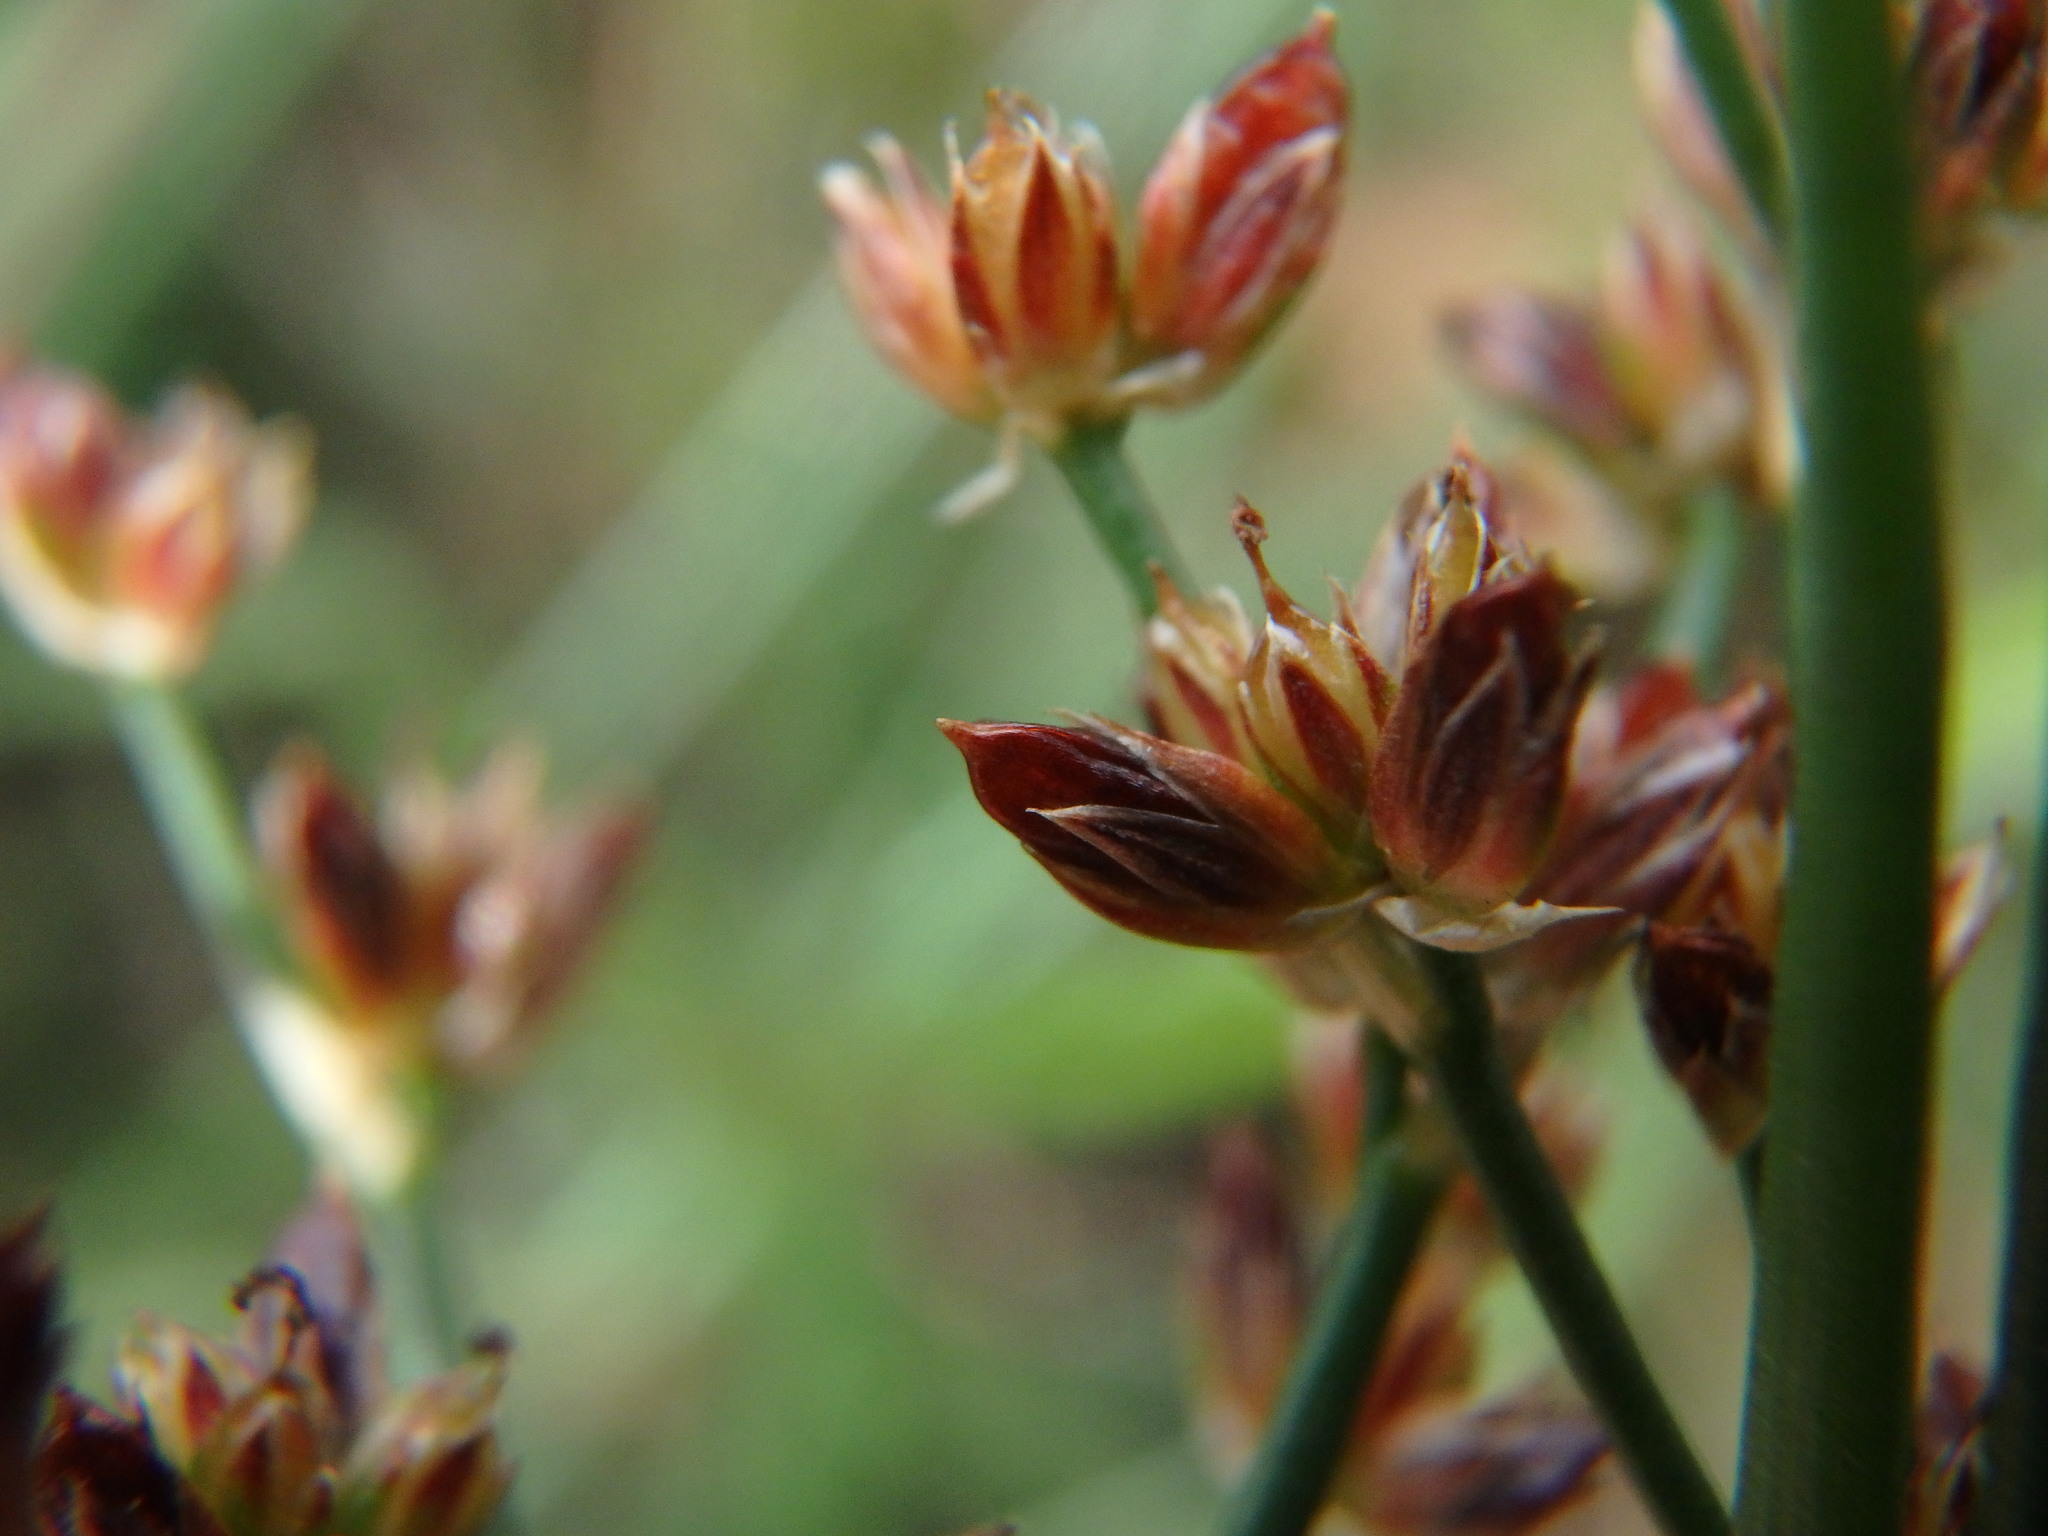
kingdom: Plantae
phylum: Tracheophyta
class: Liliopsida
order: Poales
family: Juncaceae
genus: Juncus
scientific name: Juncus articulatus
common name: Jointed rush
